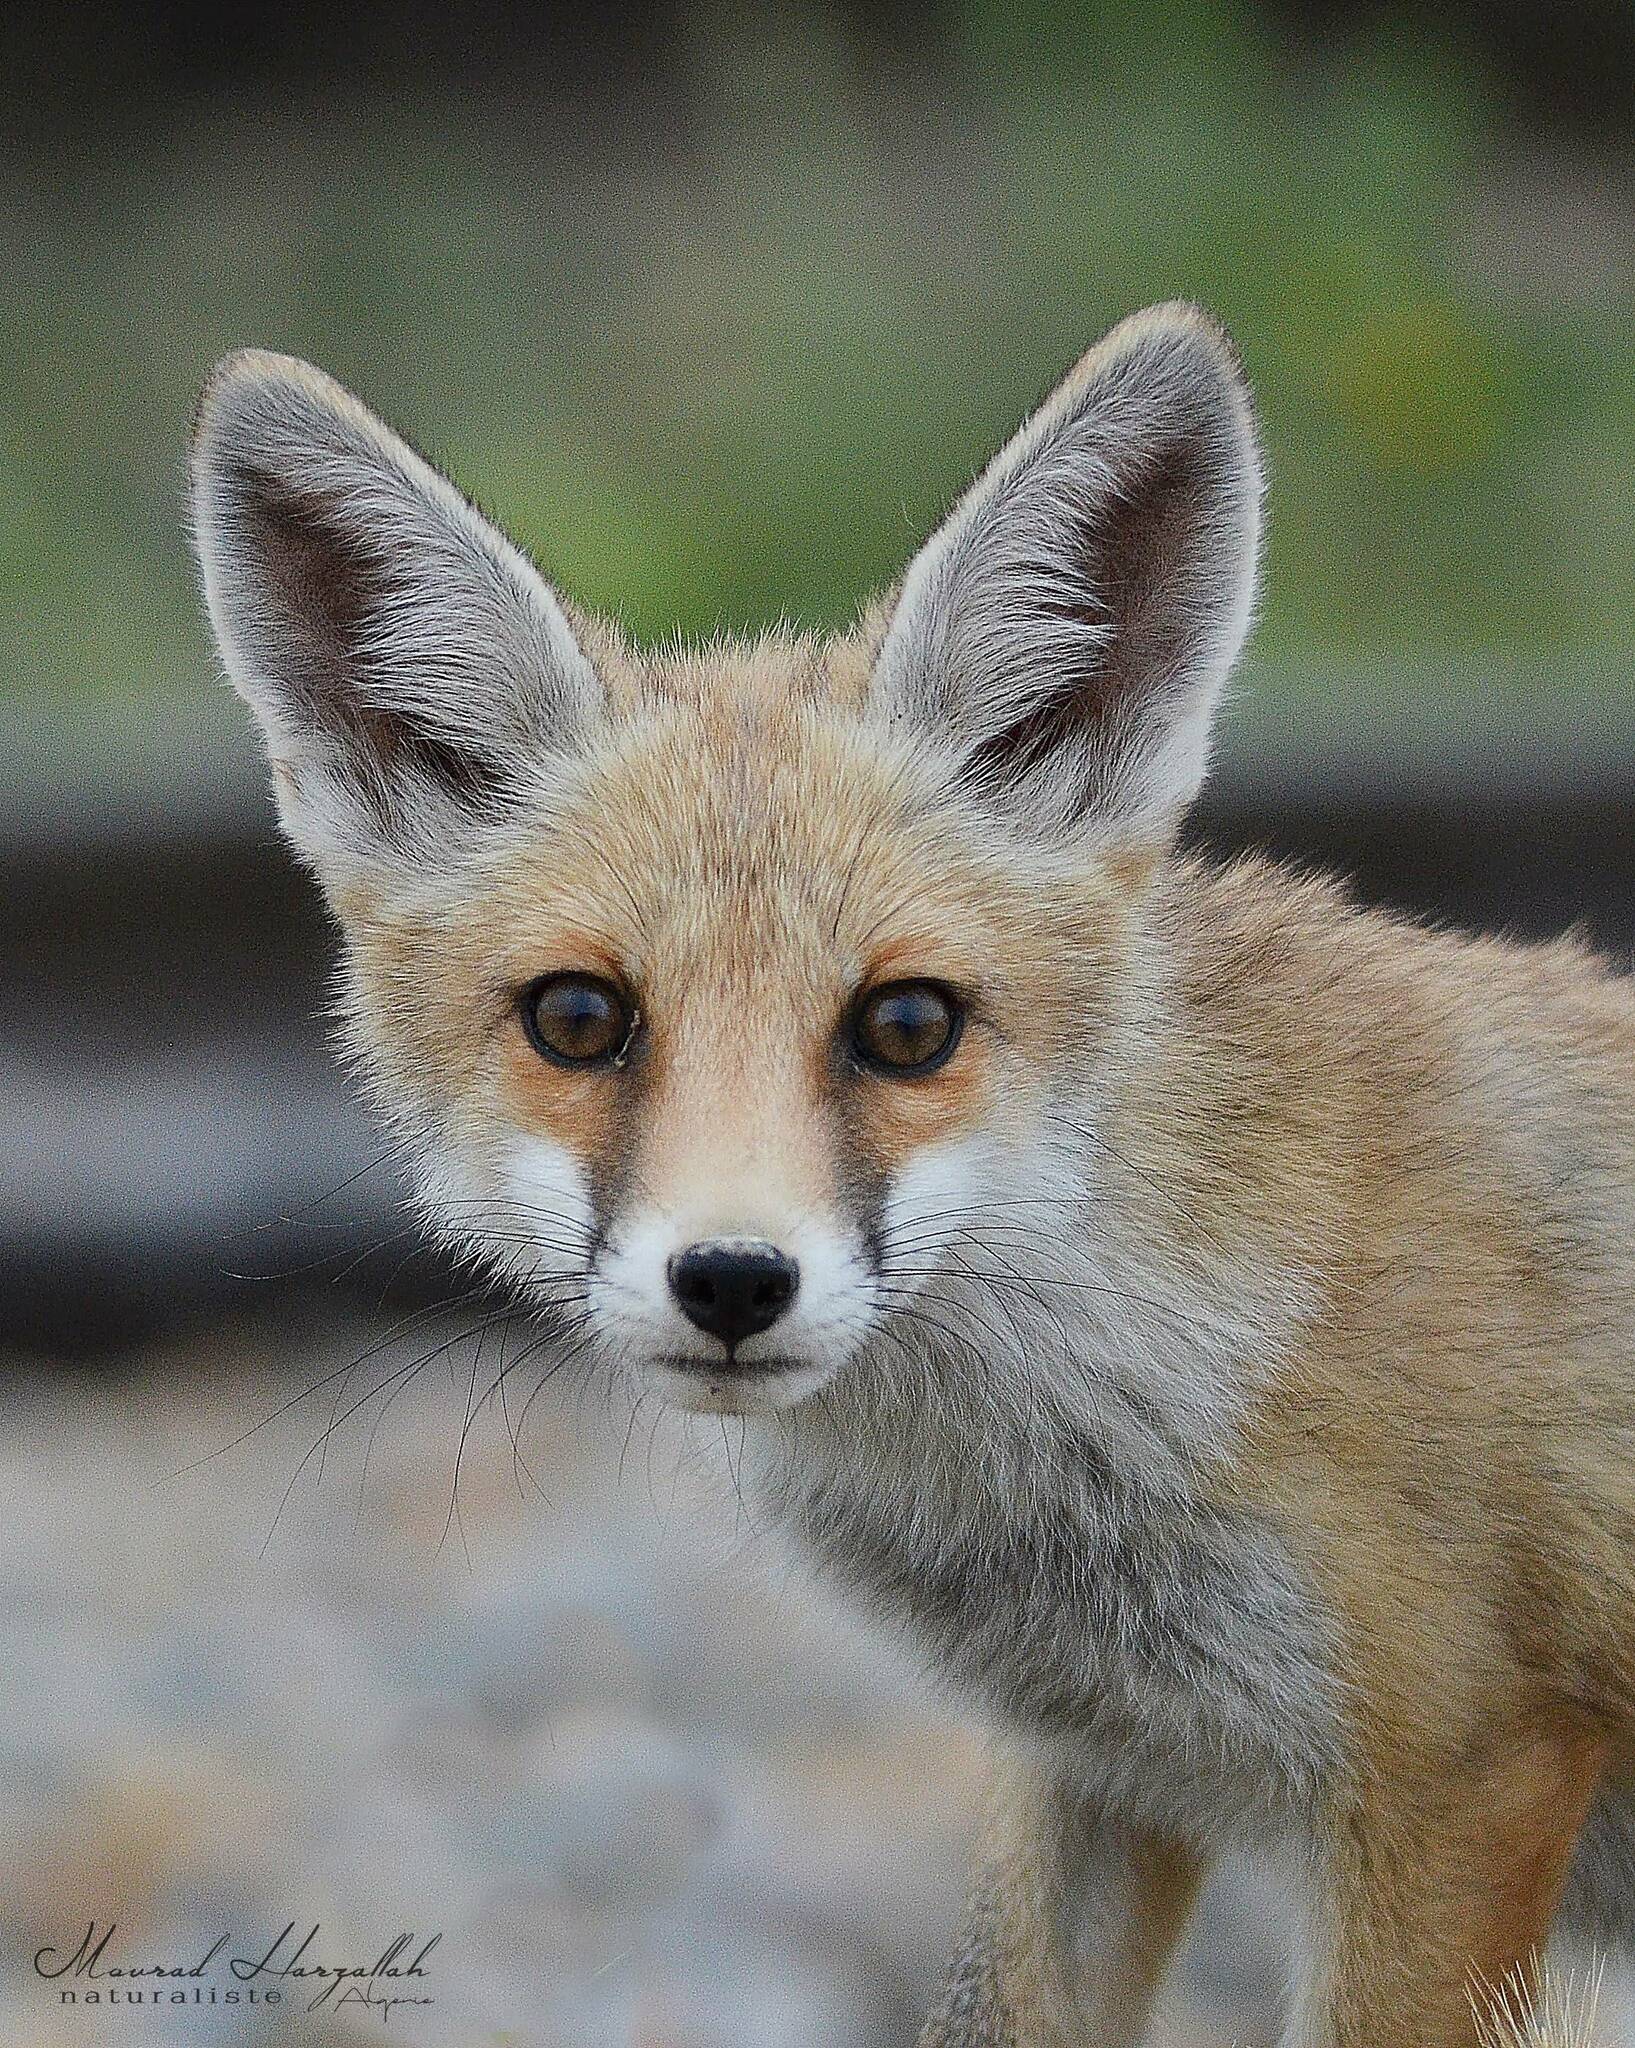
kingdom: Animalia
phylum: Chordata
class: Mammalia
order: Carnivora
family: Canidae
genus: Vulpes
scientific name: Vulpes vulpes
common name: Red fox
